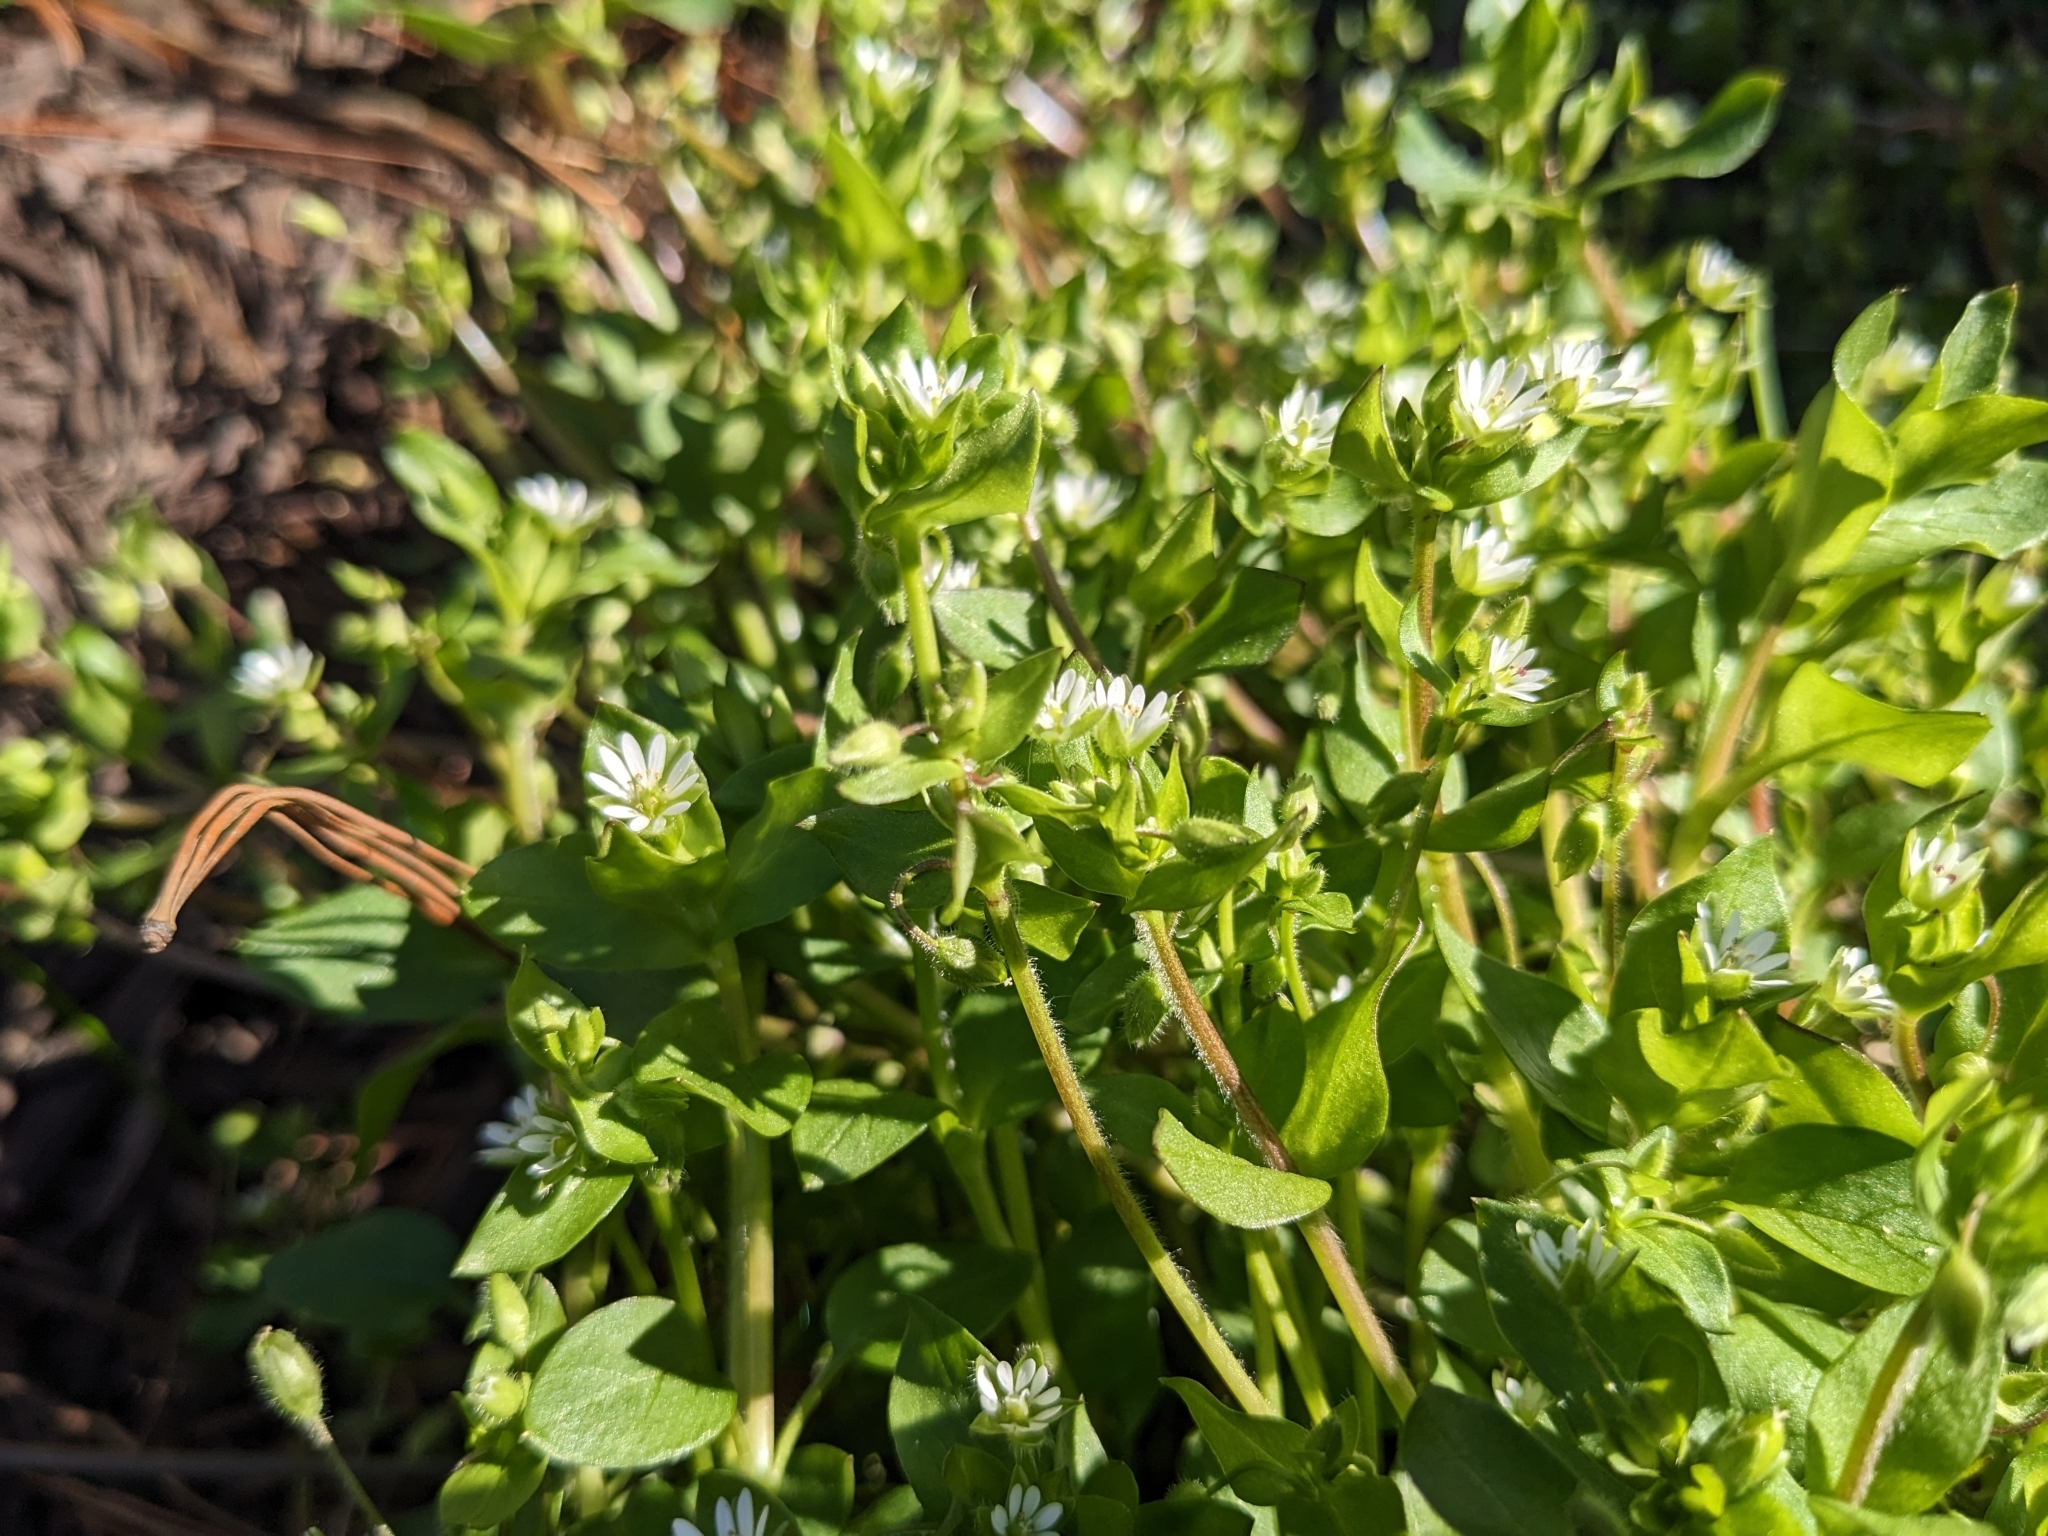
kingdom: Plantae
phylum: Tracheophyta
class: Magnoliopsida
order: Caryophyllales
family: Caryophyllaceae
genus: Stellaria
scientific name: Stellaria media
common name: Common chickweed
